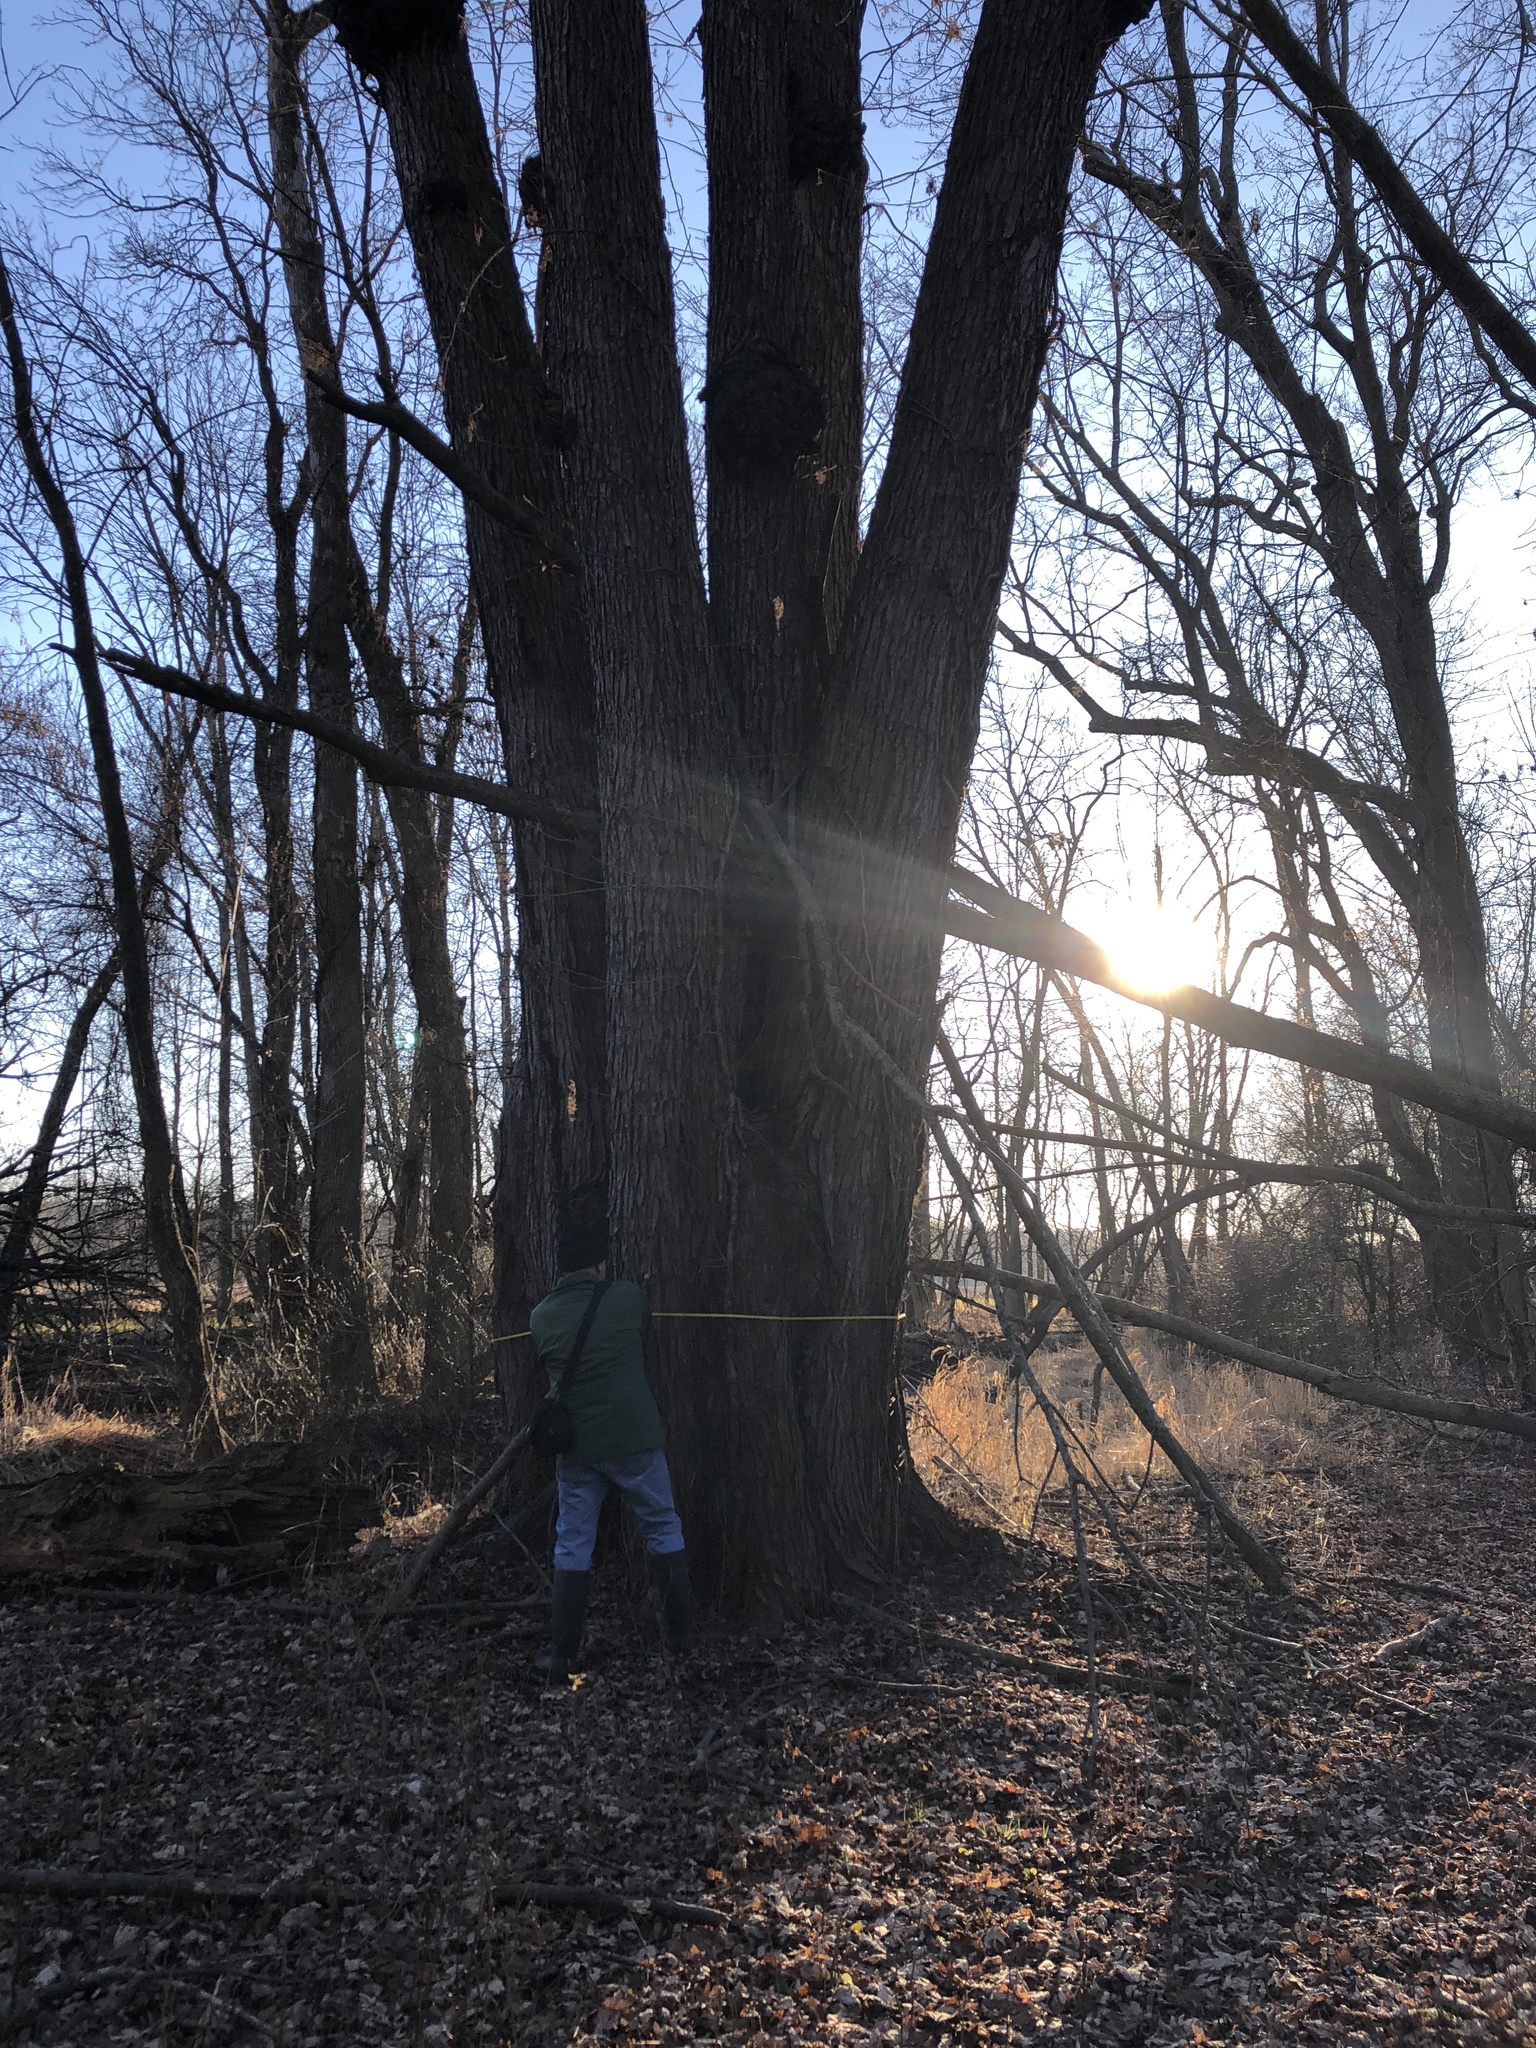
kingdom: Plantae
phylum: Tracheophyta
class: Magnoliopsida
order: Sapindales
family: Sapindaceae
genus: Acer
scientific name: Acer saccharinum
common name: Silver maple
